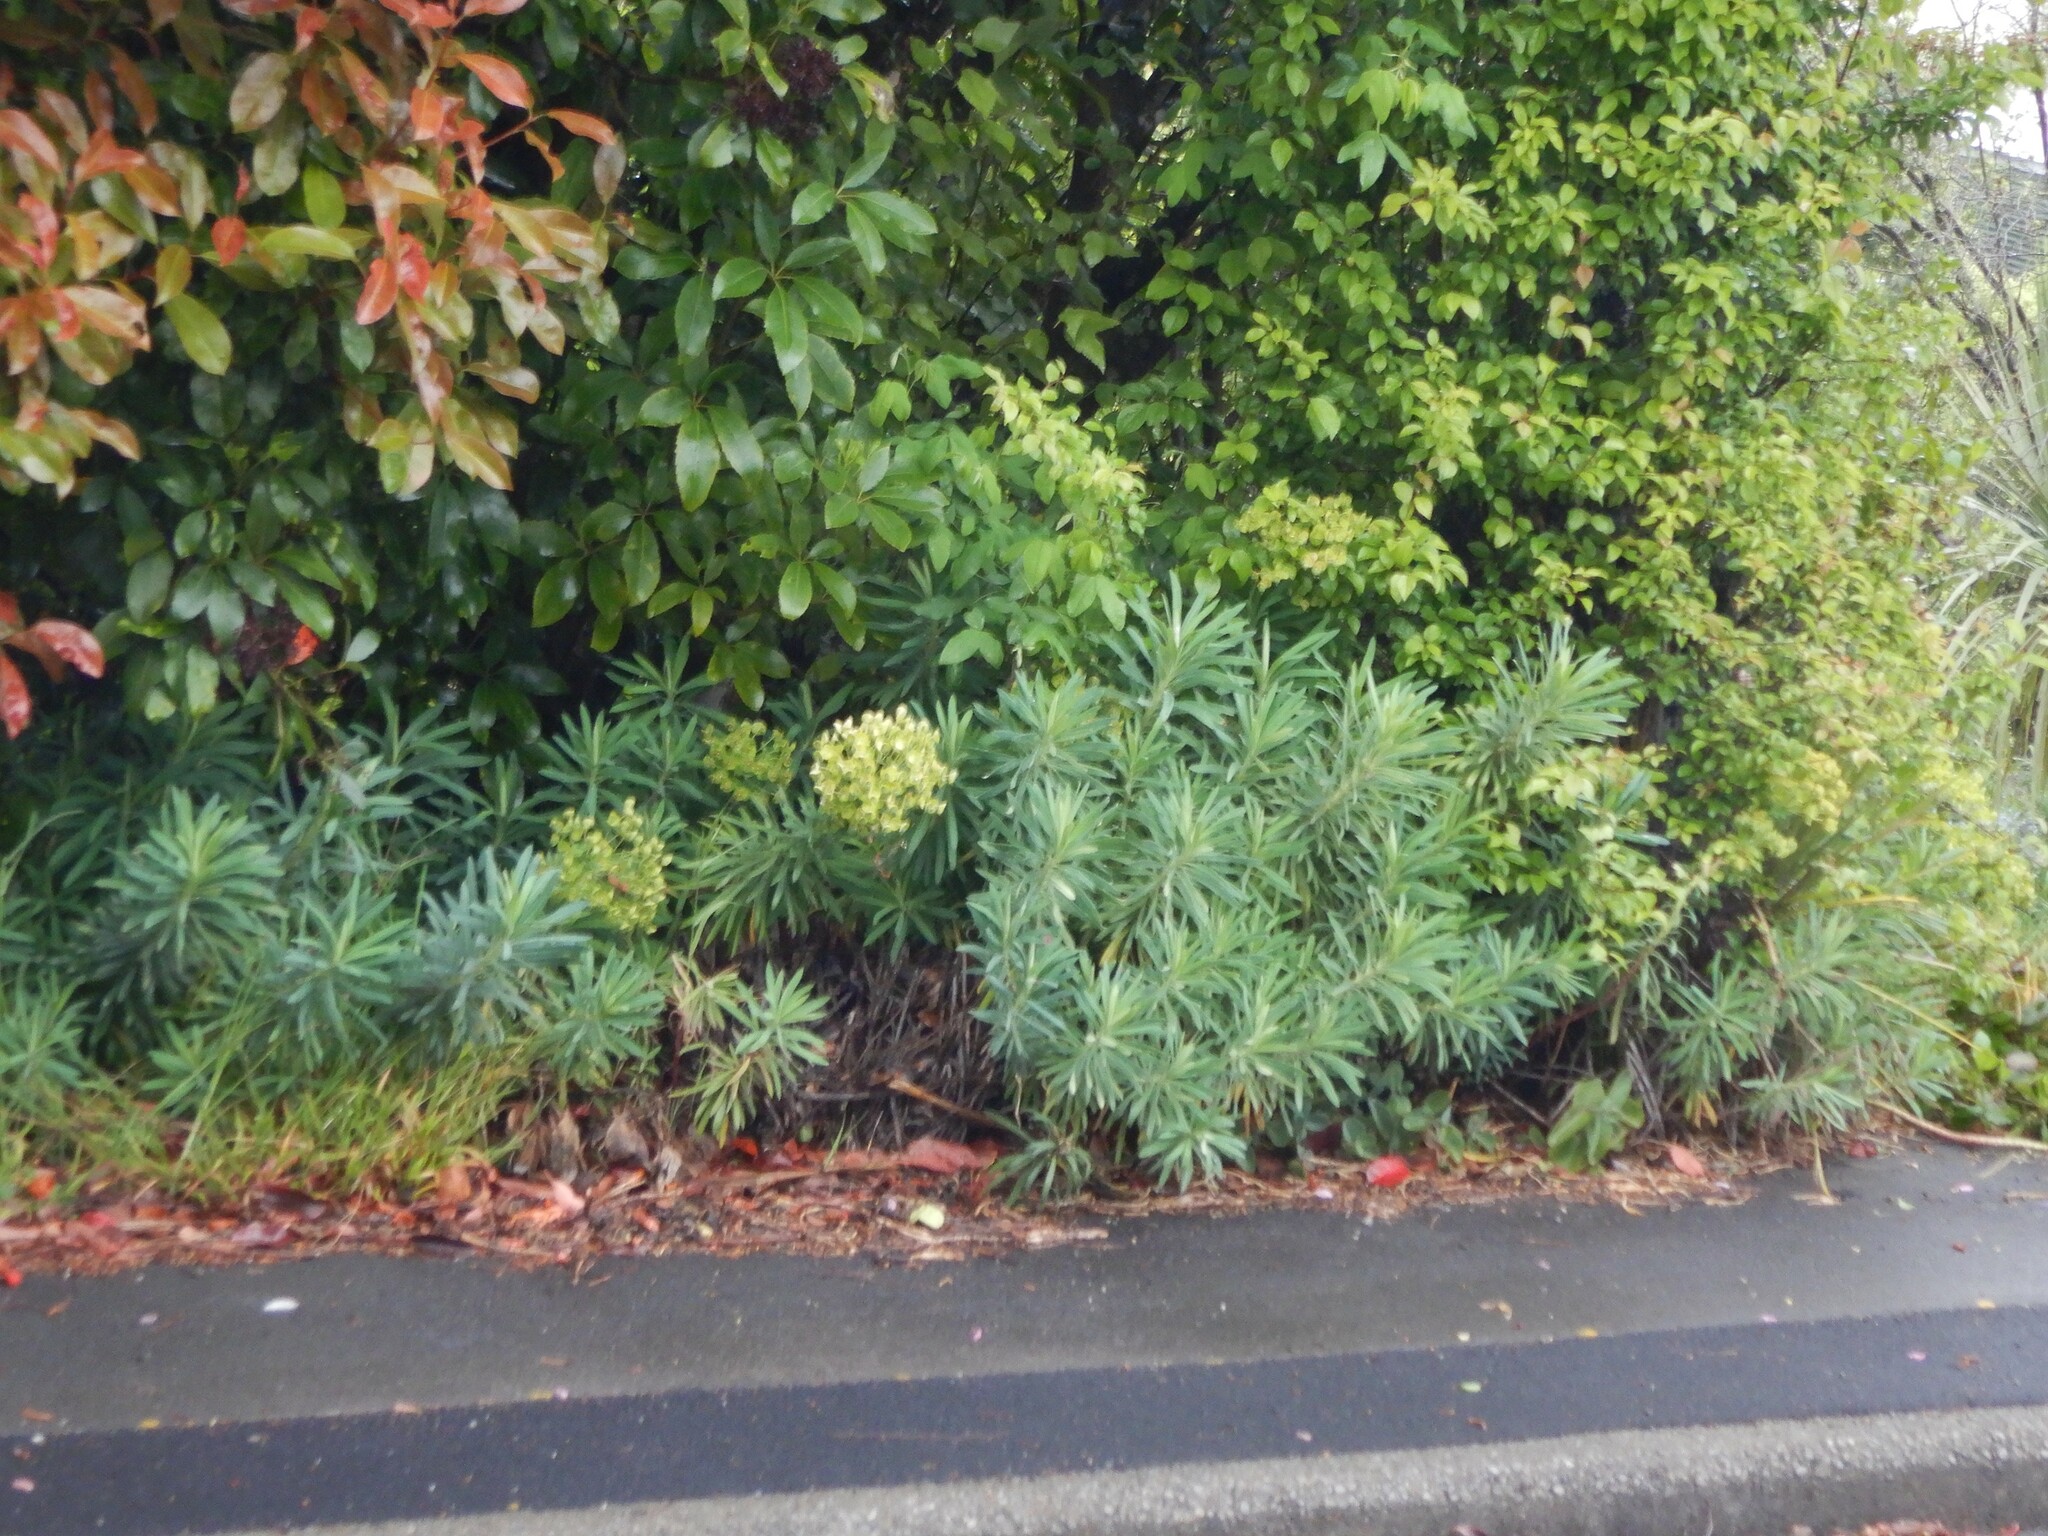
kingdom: Plantae
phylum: Tracheophyta
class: Magnoliopsida
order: Malpighiales
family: Euphorbiaceae
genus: Euphorbia
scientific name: Euphorbia characias
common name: Mediterranean spurge
